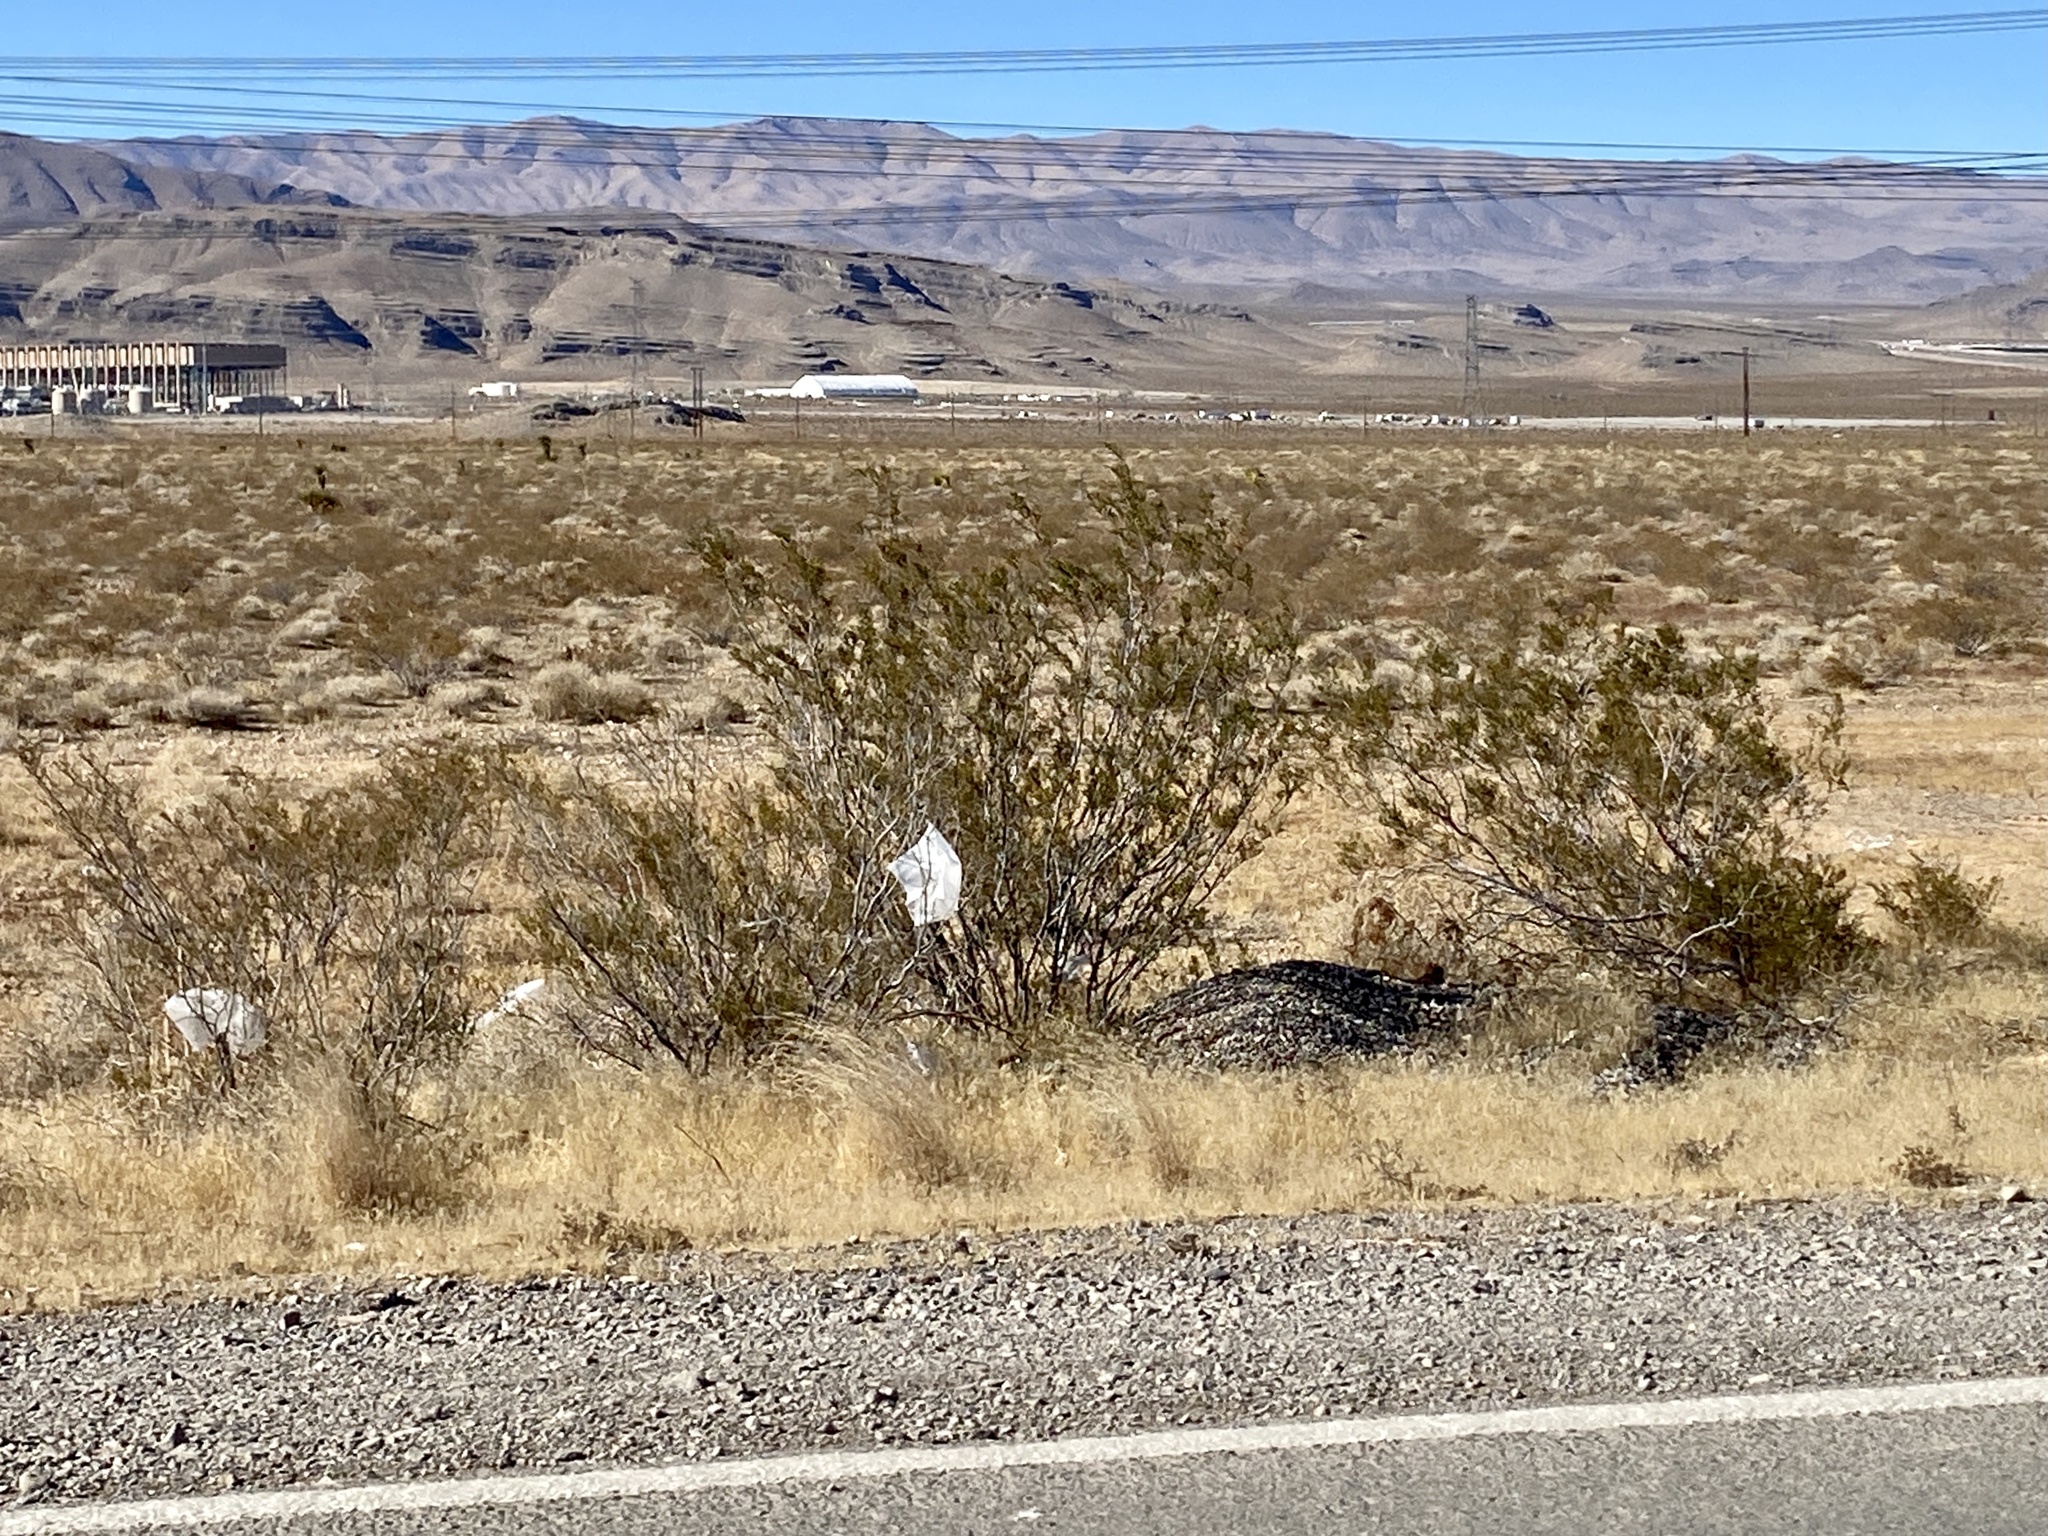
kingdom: Plantae
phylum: Tracheophyta
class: Magnoliopsida
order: Zygophyllales
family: Zygophyllaceae
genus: Larrea
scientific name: Larrea tridentata
